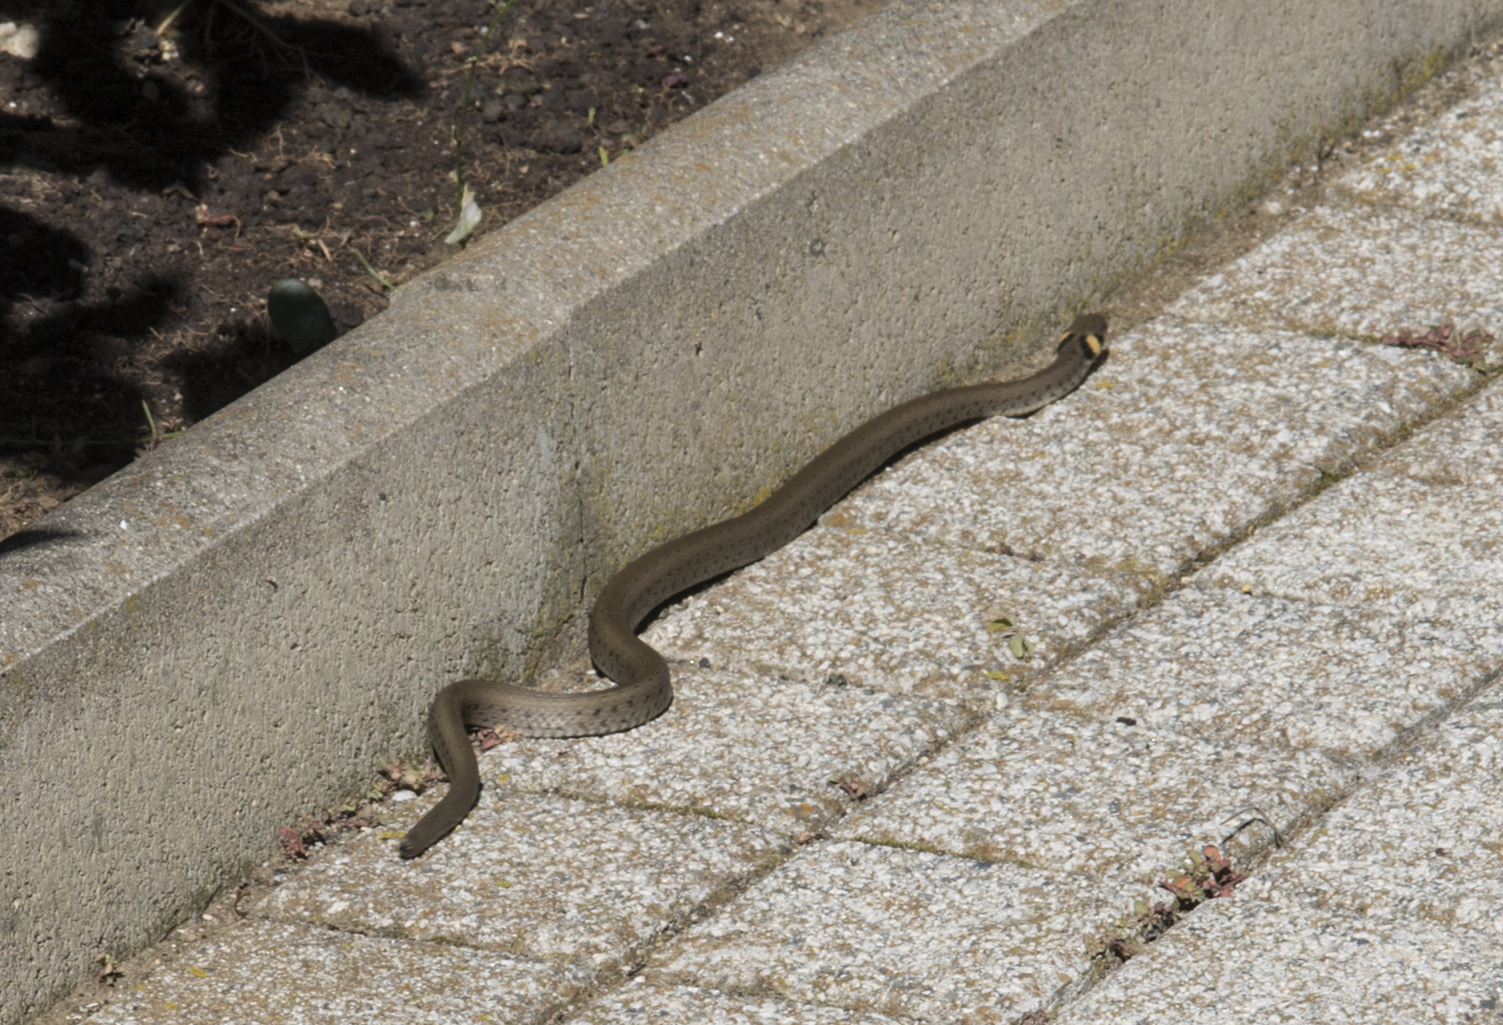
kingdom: Animalia
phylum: Chordata
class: Squamata
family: Colubridae
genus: Natrix
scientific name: Natrix natrix
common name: Grass snake
